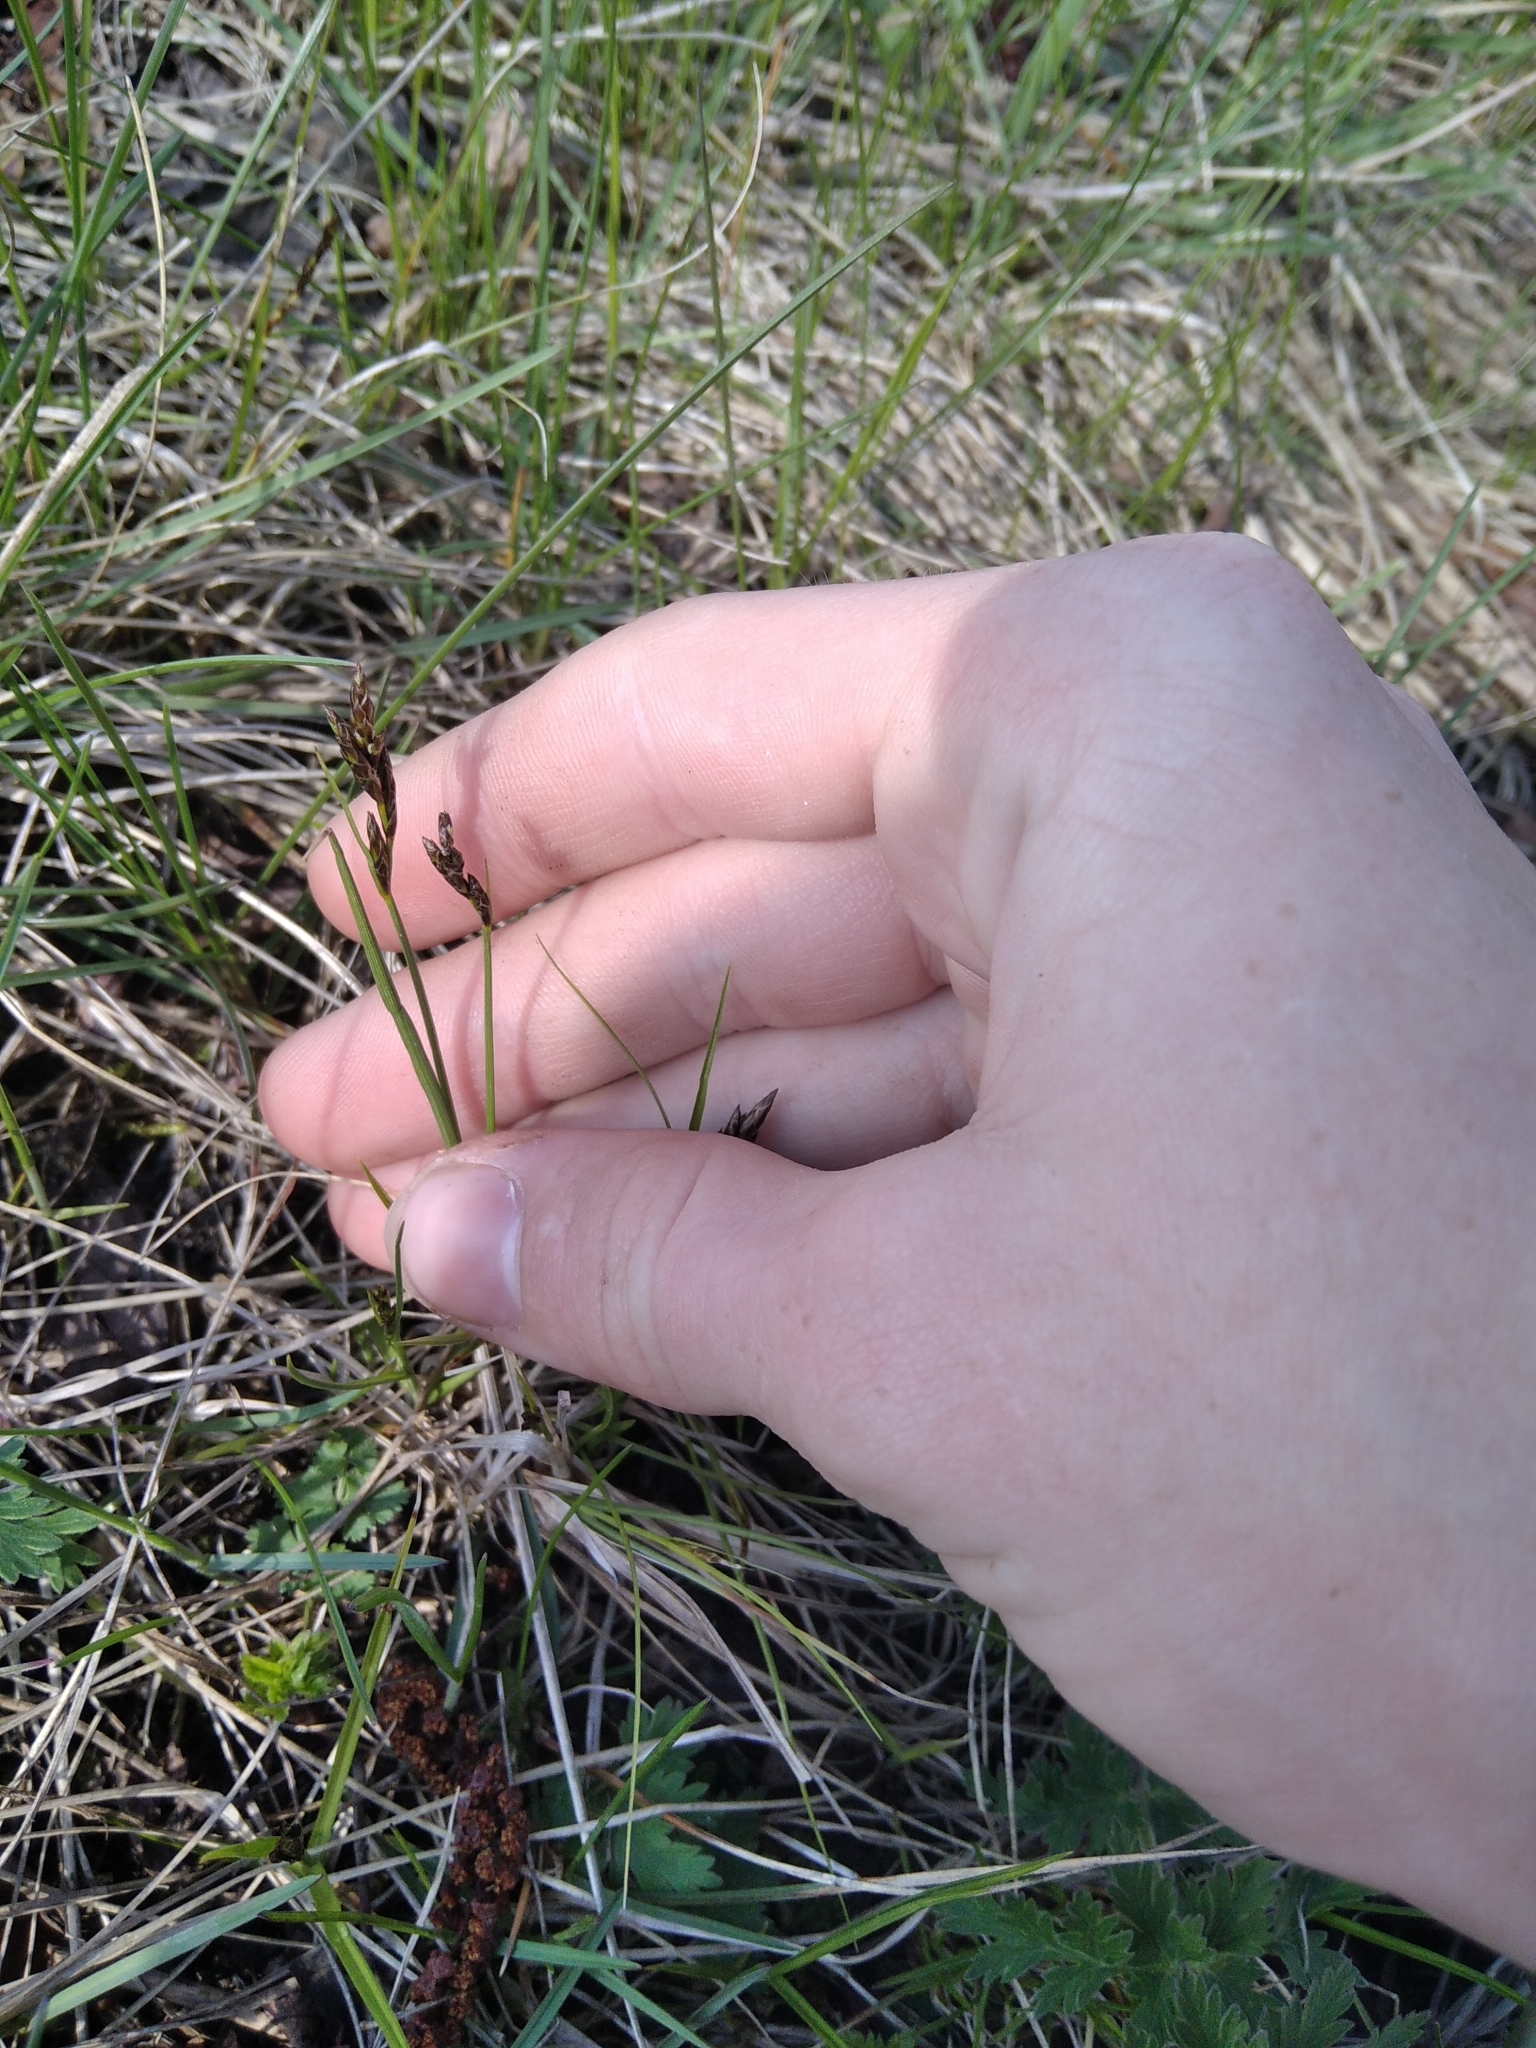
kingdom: Plantae
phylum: Tracheophyta
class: Liliopsida
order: Poales
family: Juncaceae
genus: Juncus
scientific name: Juncus compressus
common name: Round-fruited rush
